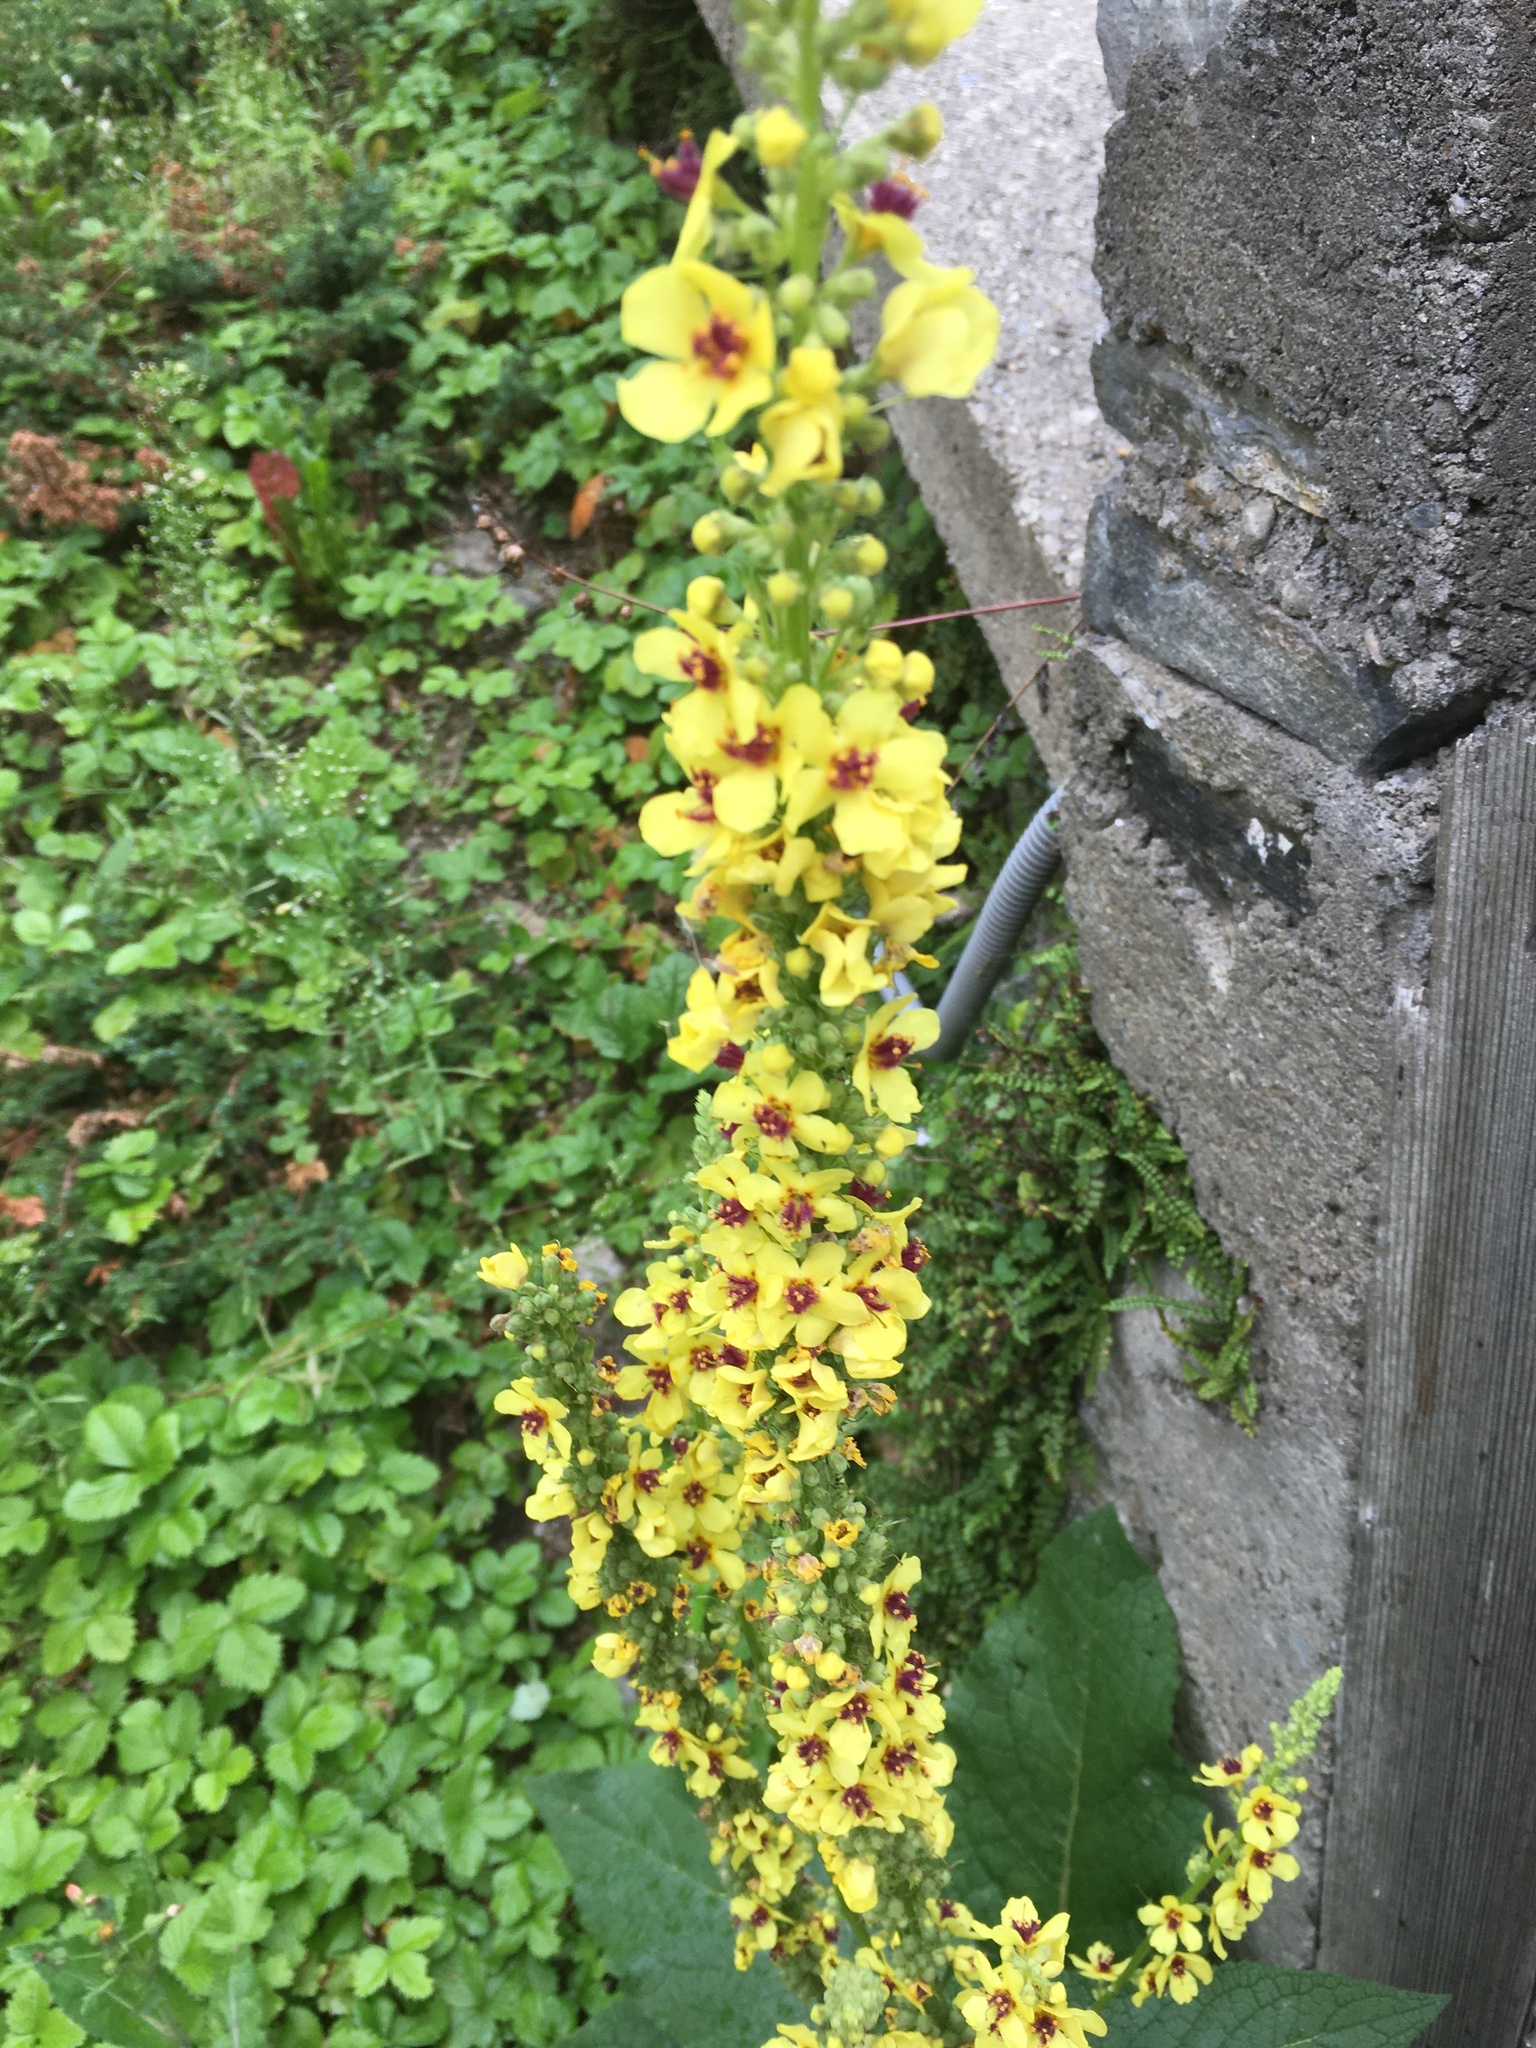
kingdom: Plantae
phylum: Tracheophyta
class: Magnoliopsida
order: Lamiales
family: Scrophulariaceae
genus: Verbascum
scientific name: Verbascum
